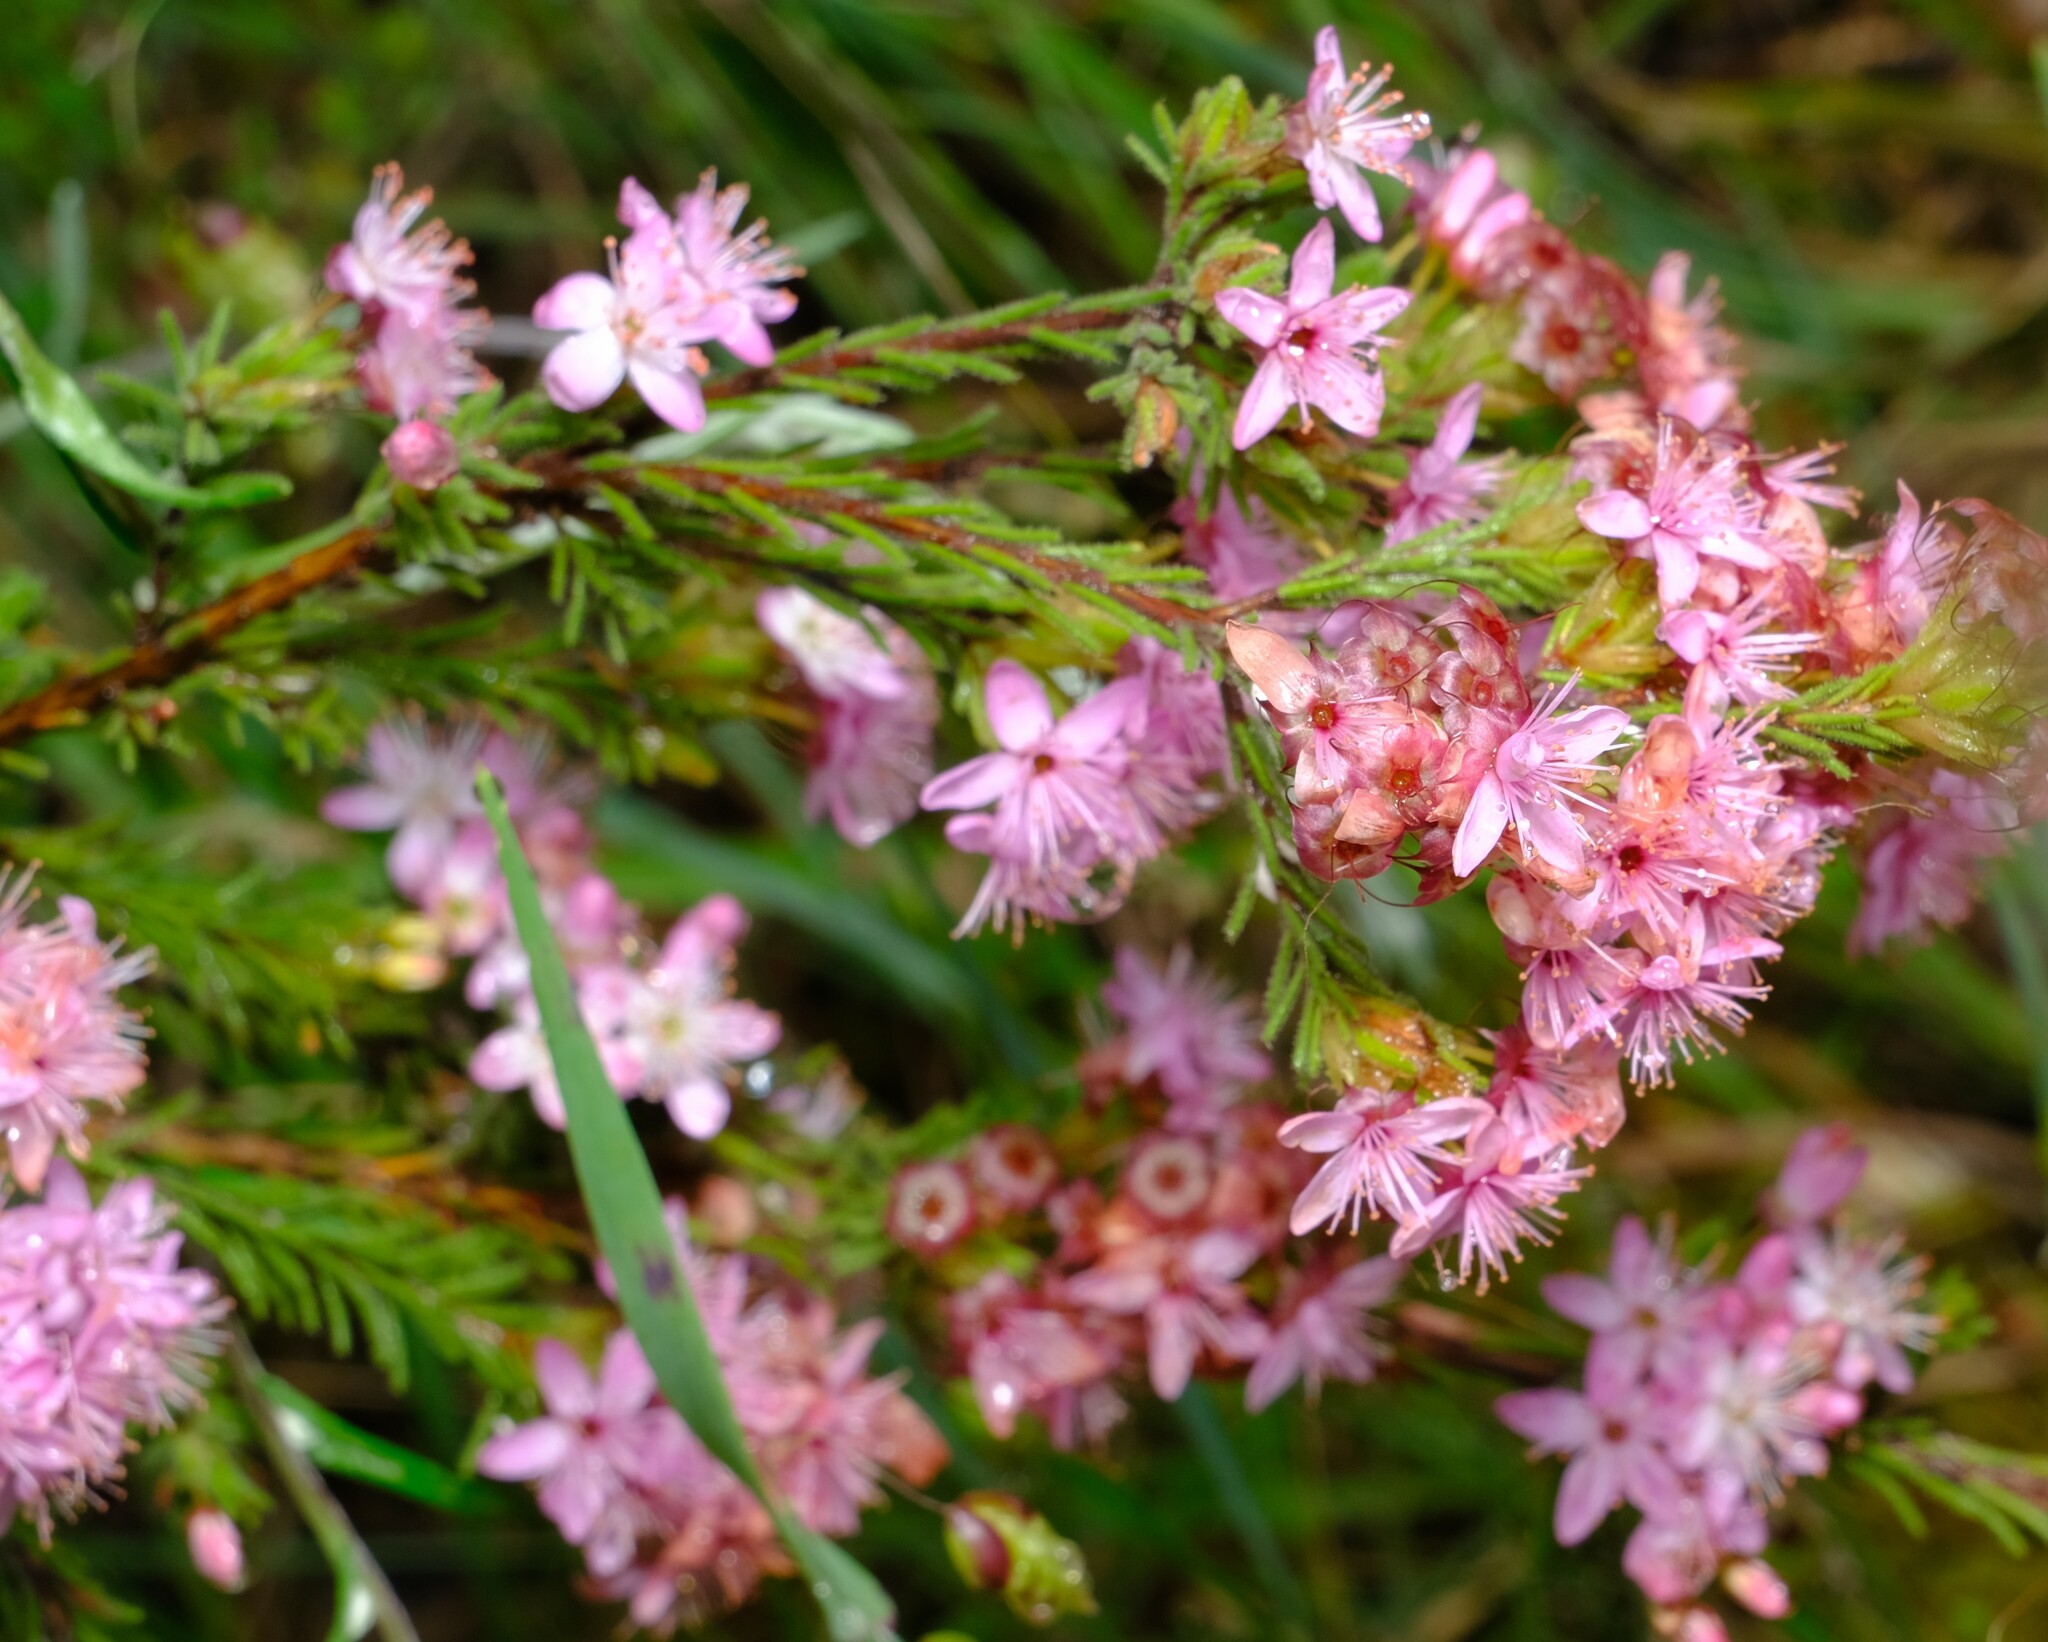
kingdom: Plantae
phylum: Tracheophyta
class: Magnoliopsida
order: Myrtales
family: Myrtaceae
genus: Calytrix
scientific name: Calytrix tetragona
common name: Common fringe myrtle
